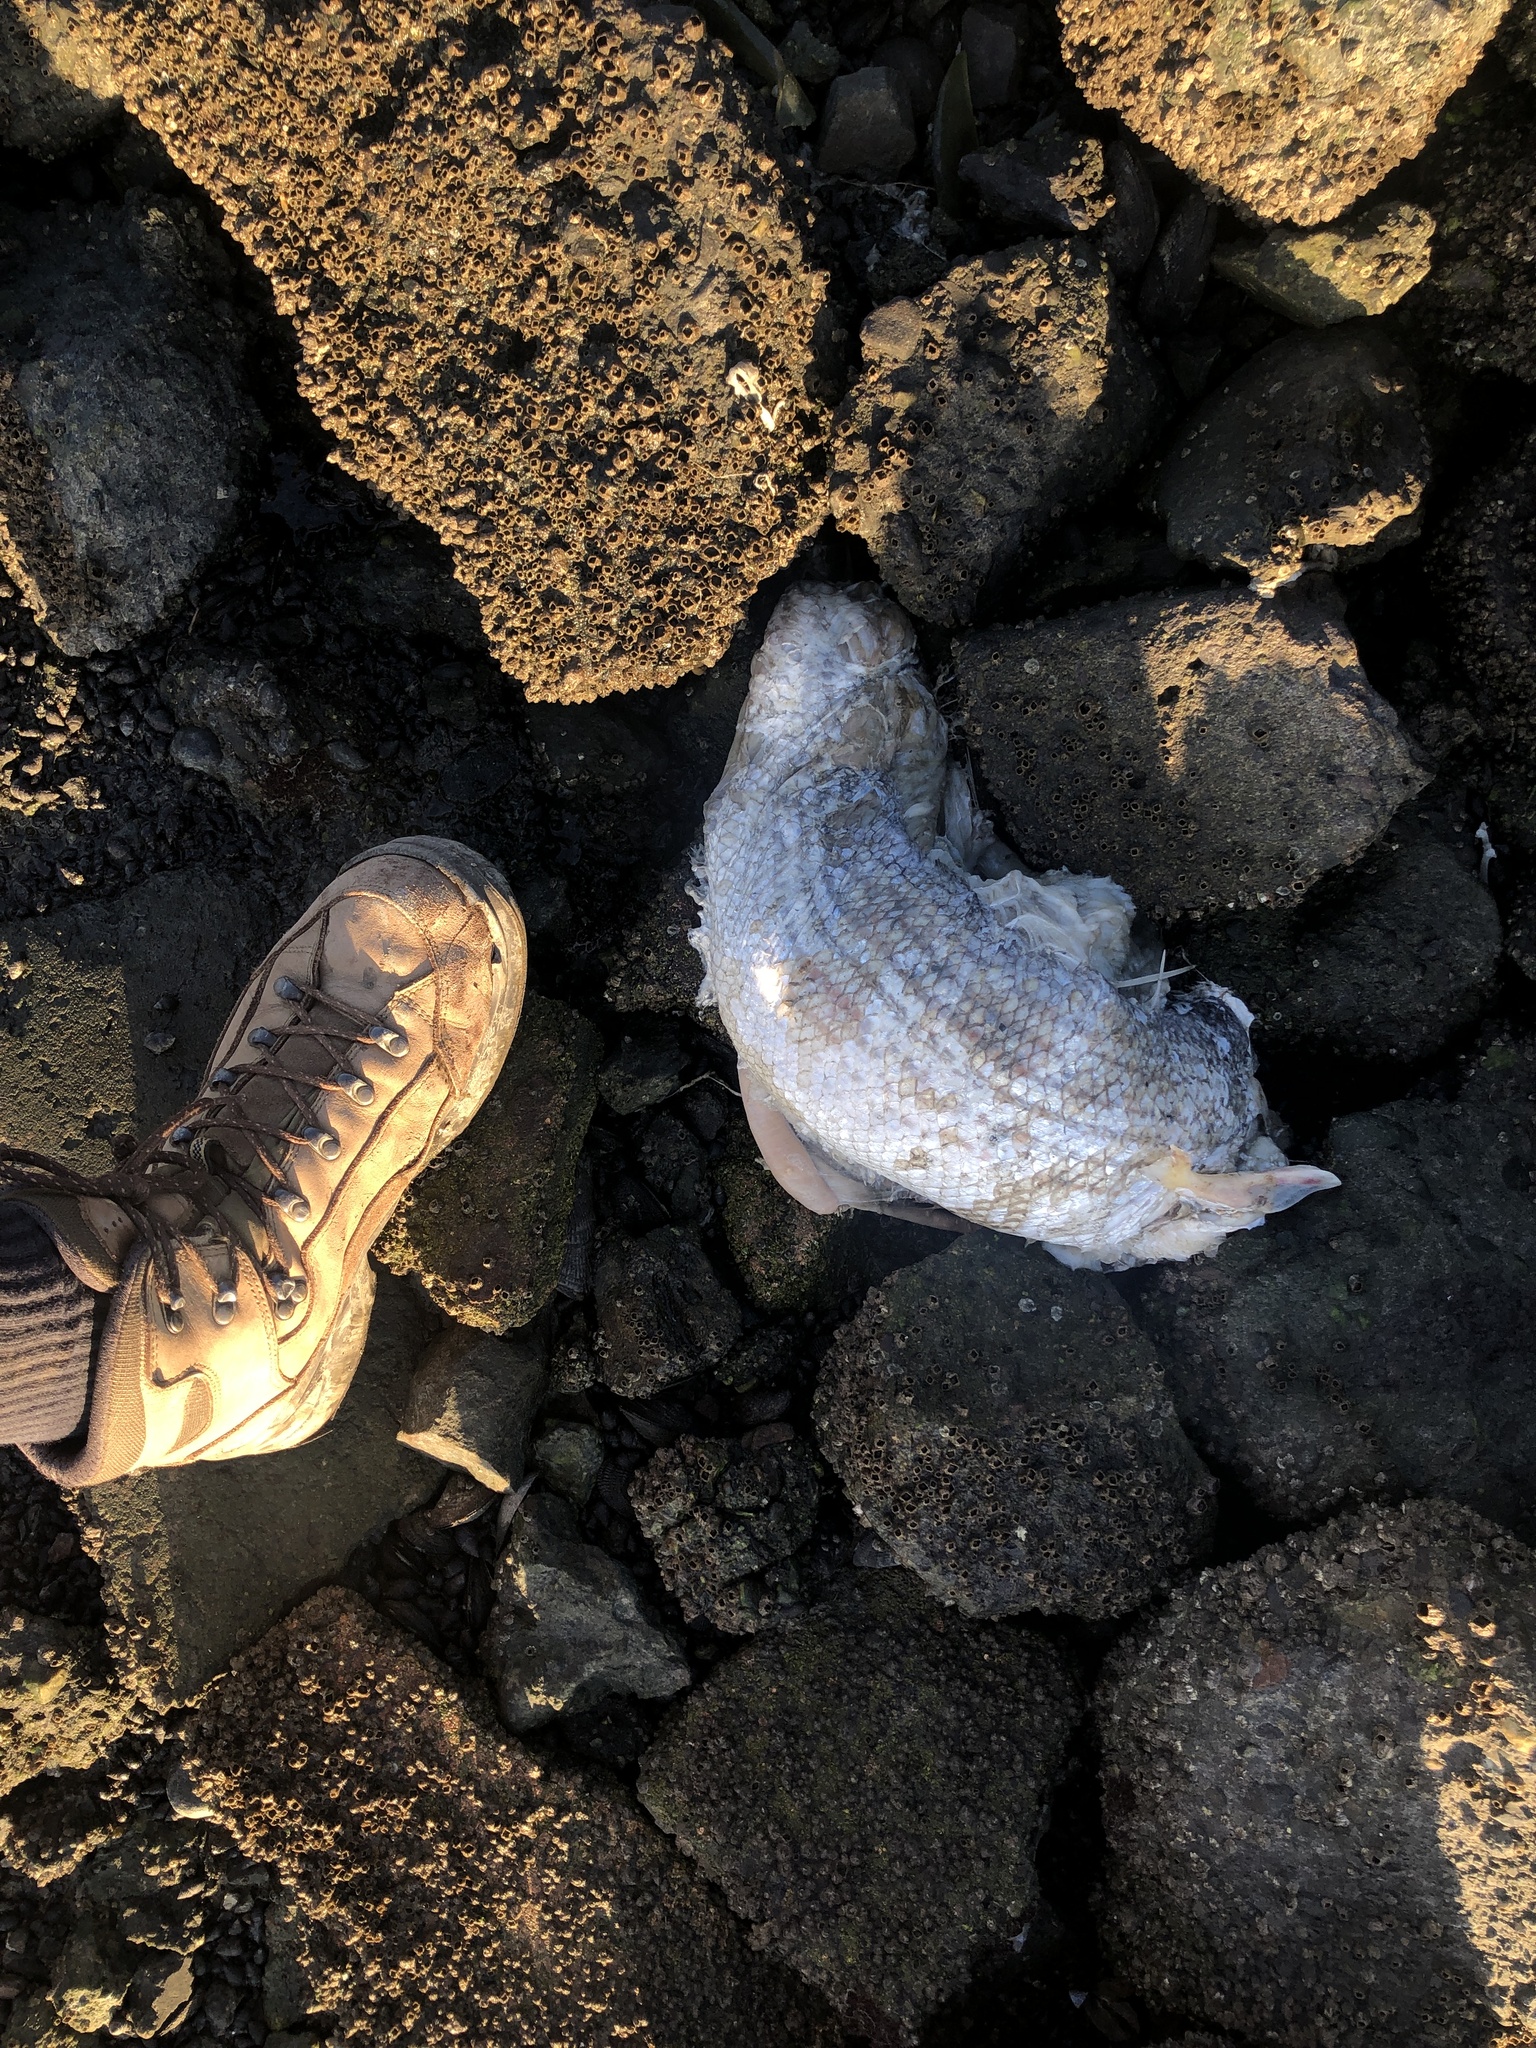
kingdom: Animalia
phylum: Chordata
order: Perciformes
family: Moronidae
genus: Morone
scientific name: Morone saxatilis
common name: Striped bass
